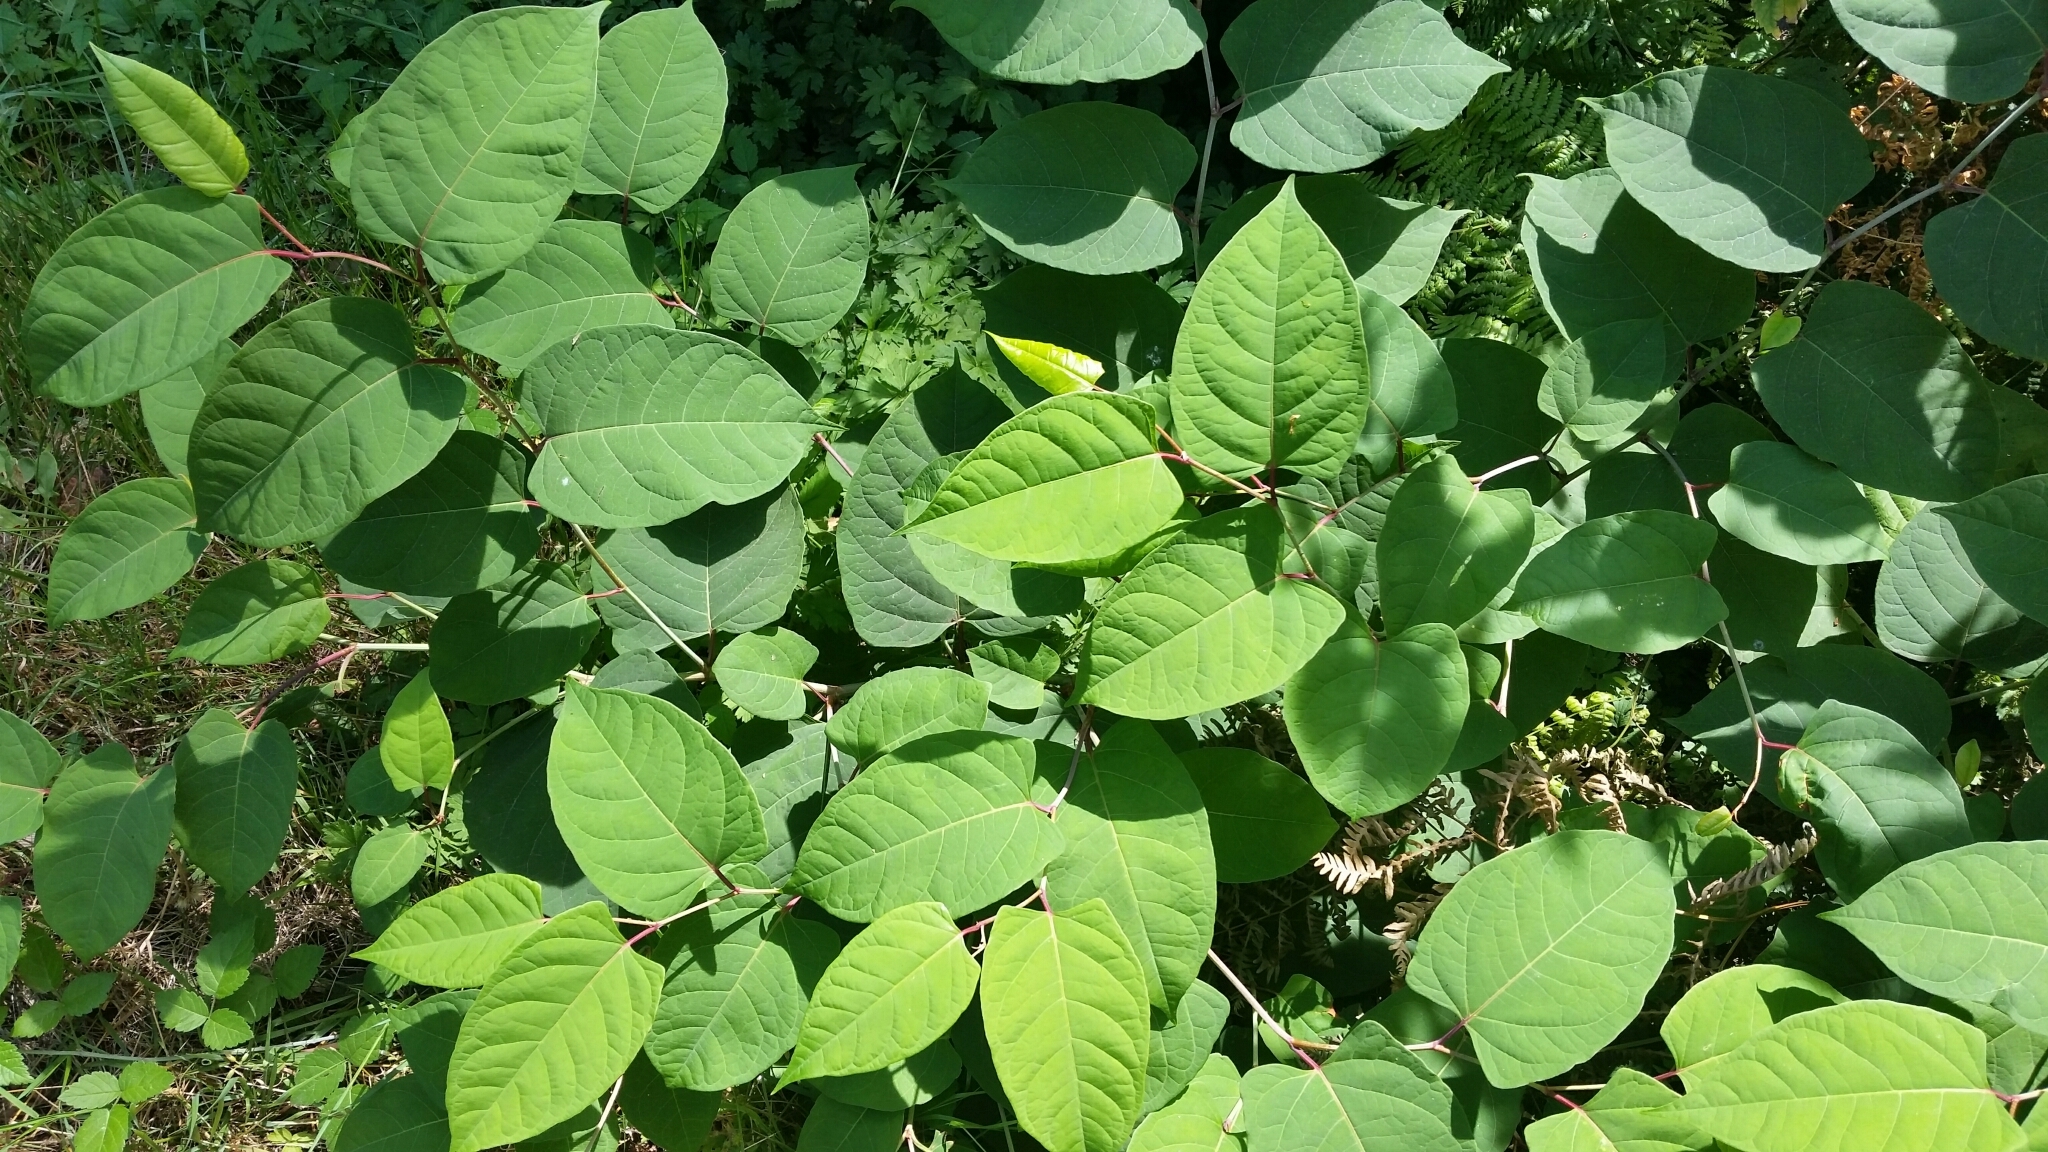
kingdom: Plantae
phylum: Tracheophyta
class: Magnoliopsida
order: Caryophyllales
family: Polygonaceae
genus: Reynoutria
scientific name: Reynoutria bohemica
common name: Bohemian knotweed
